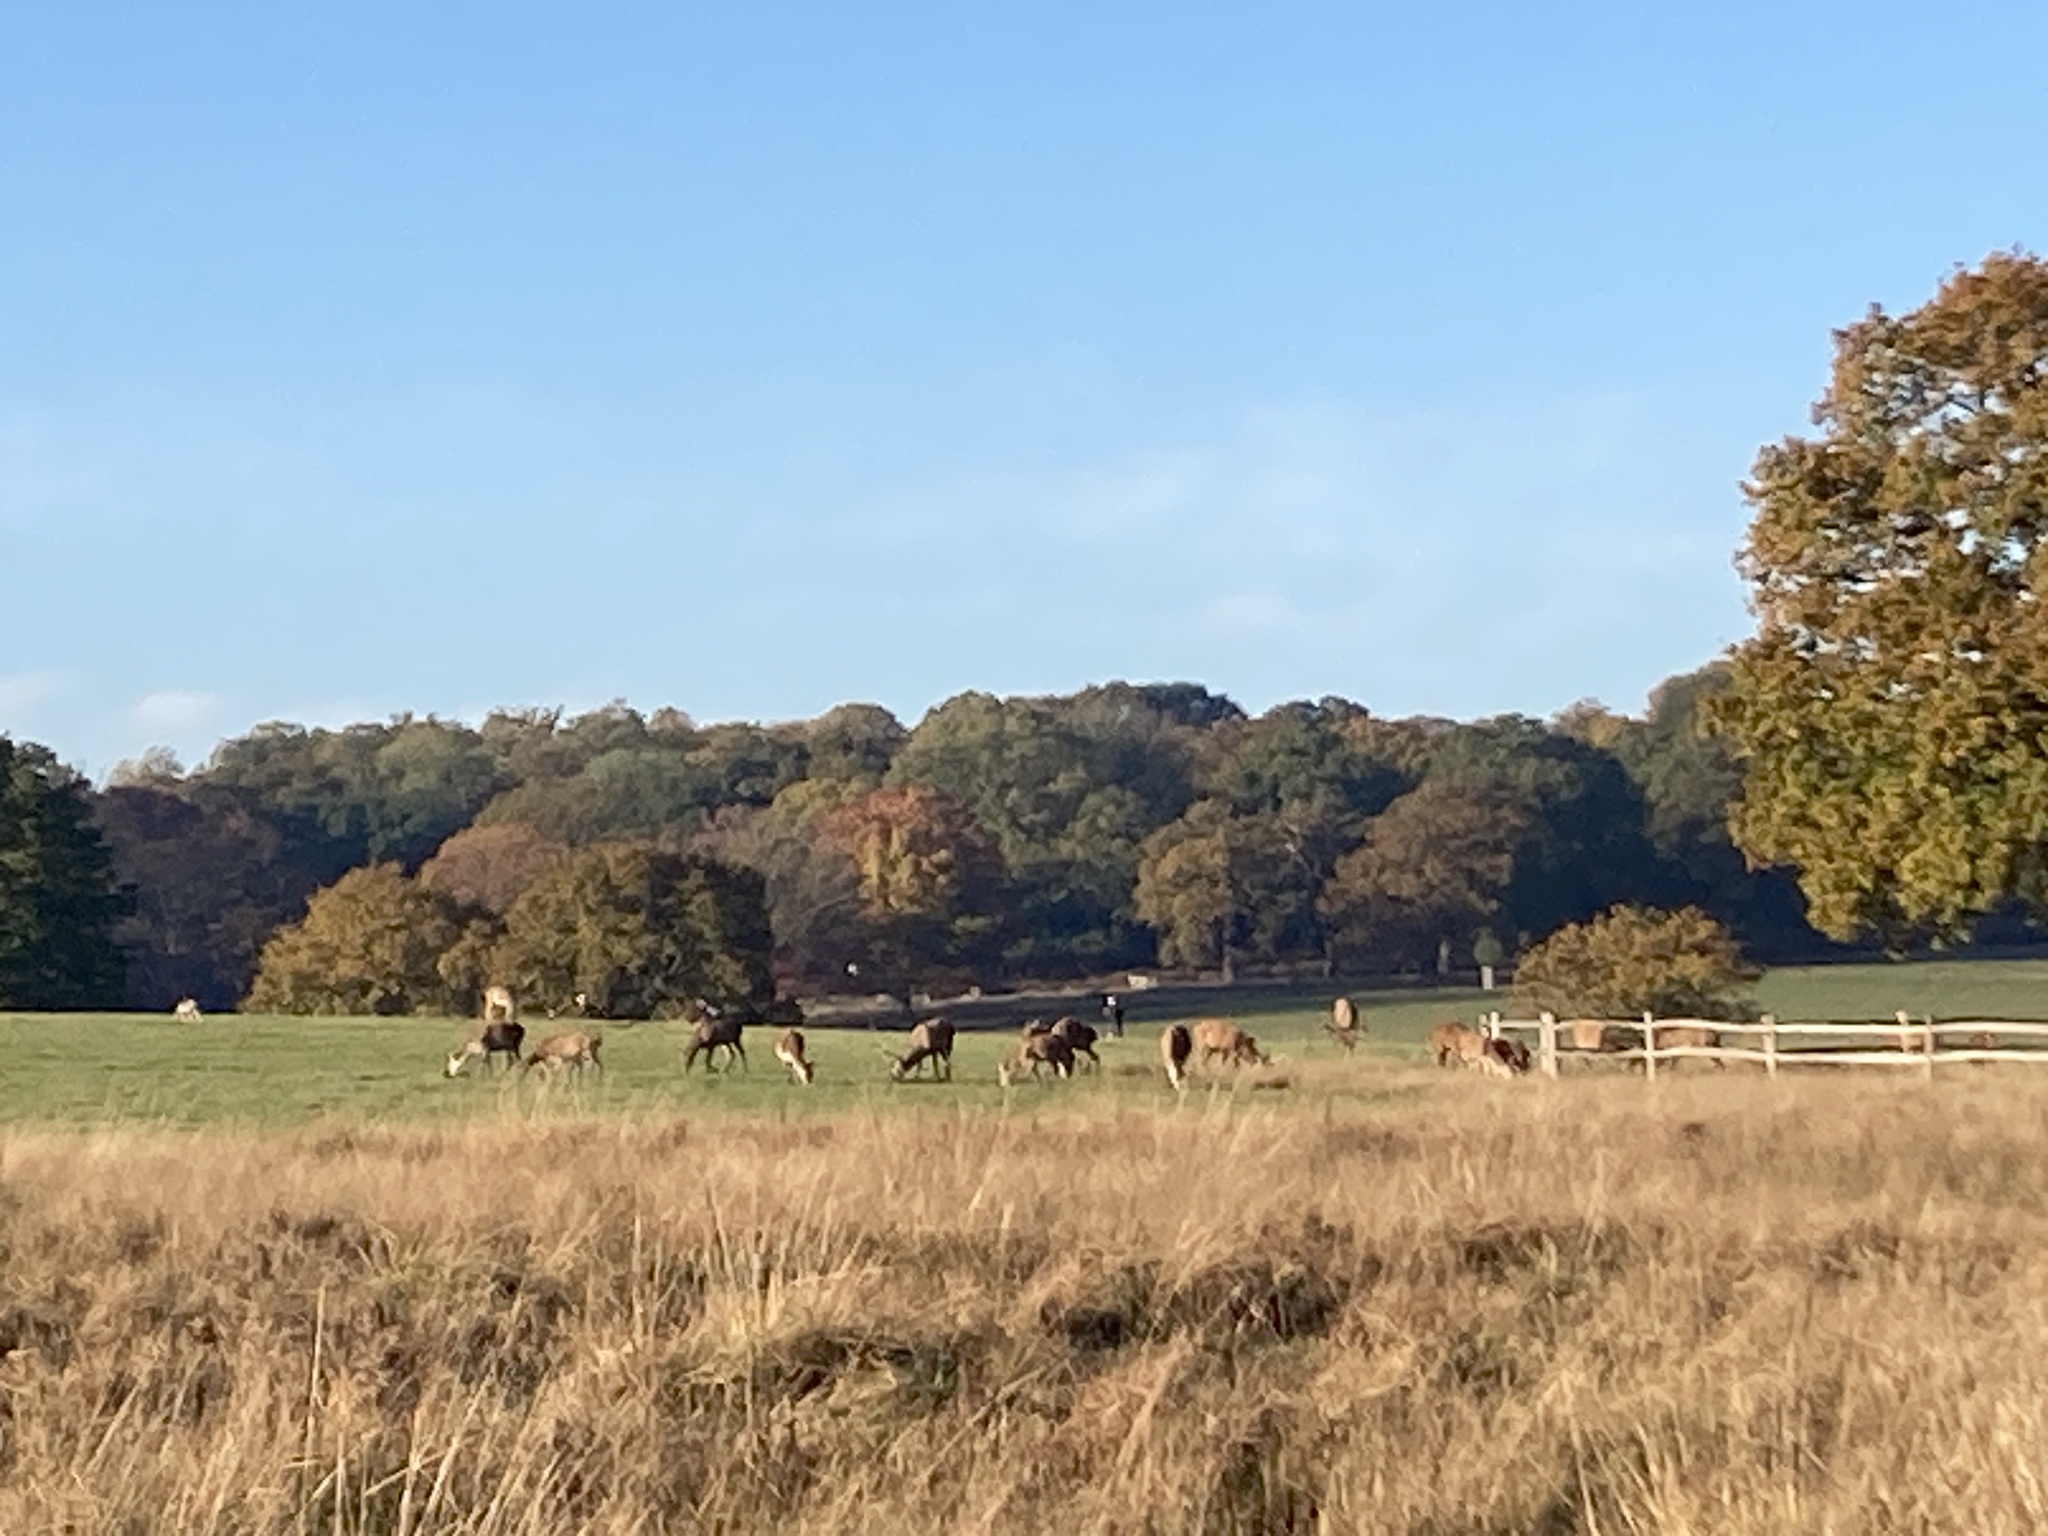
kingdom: Animalia
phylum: Chordata
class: Mammalia
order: Artiodactyla
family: Cervidae
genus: Cervus
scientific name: Cervus elaphus
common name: Red deer
